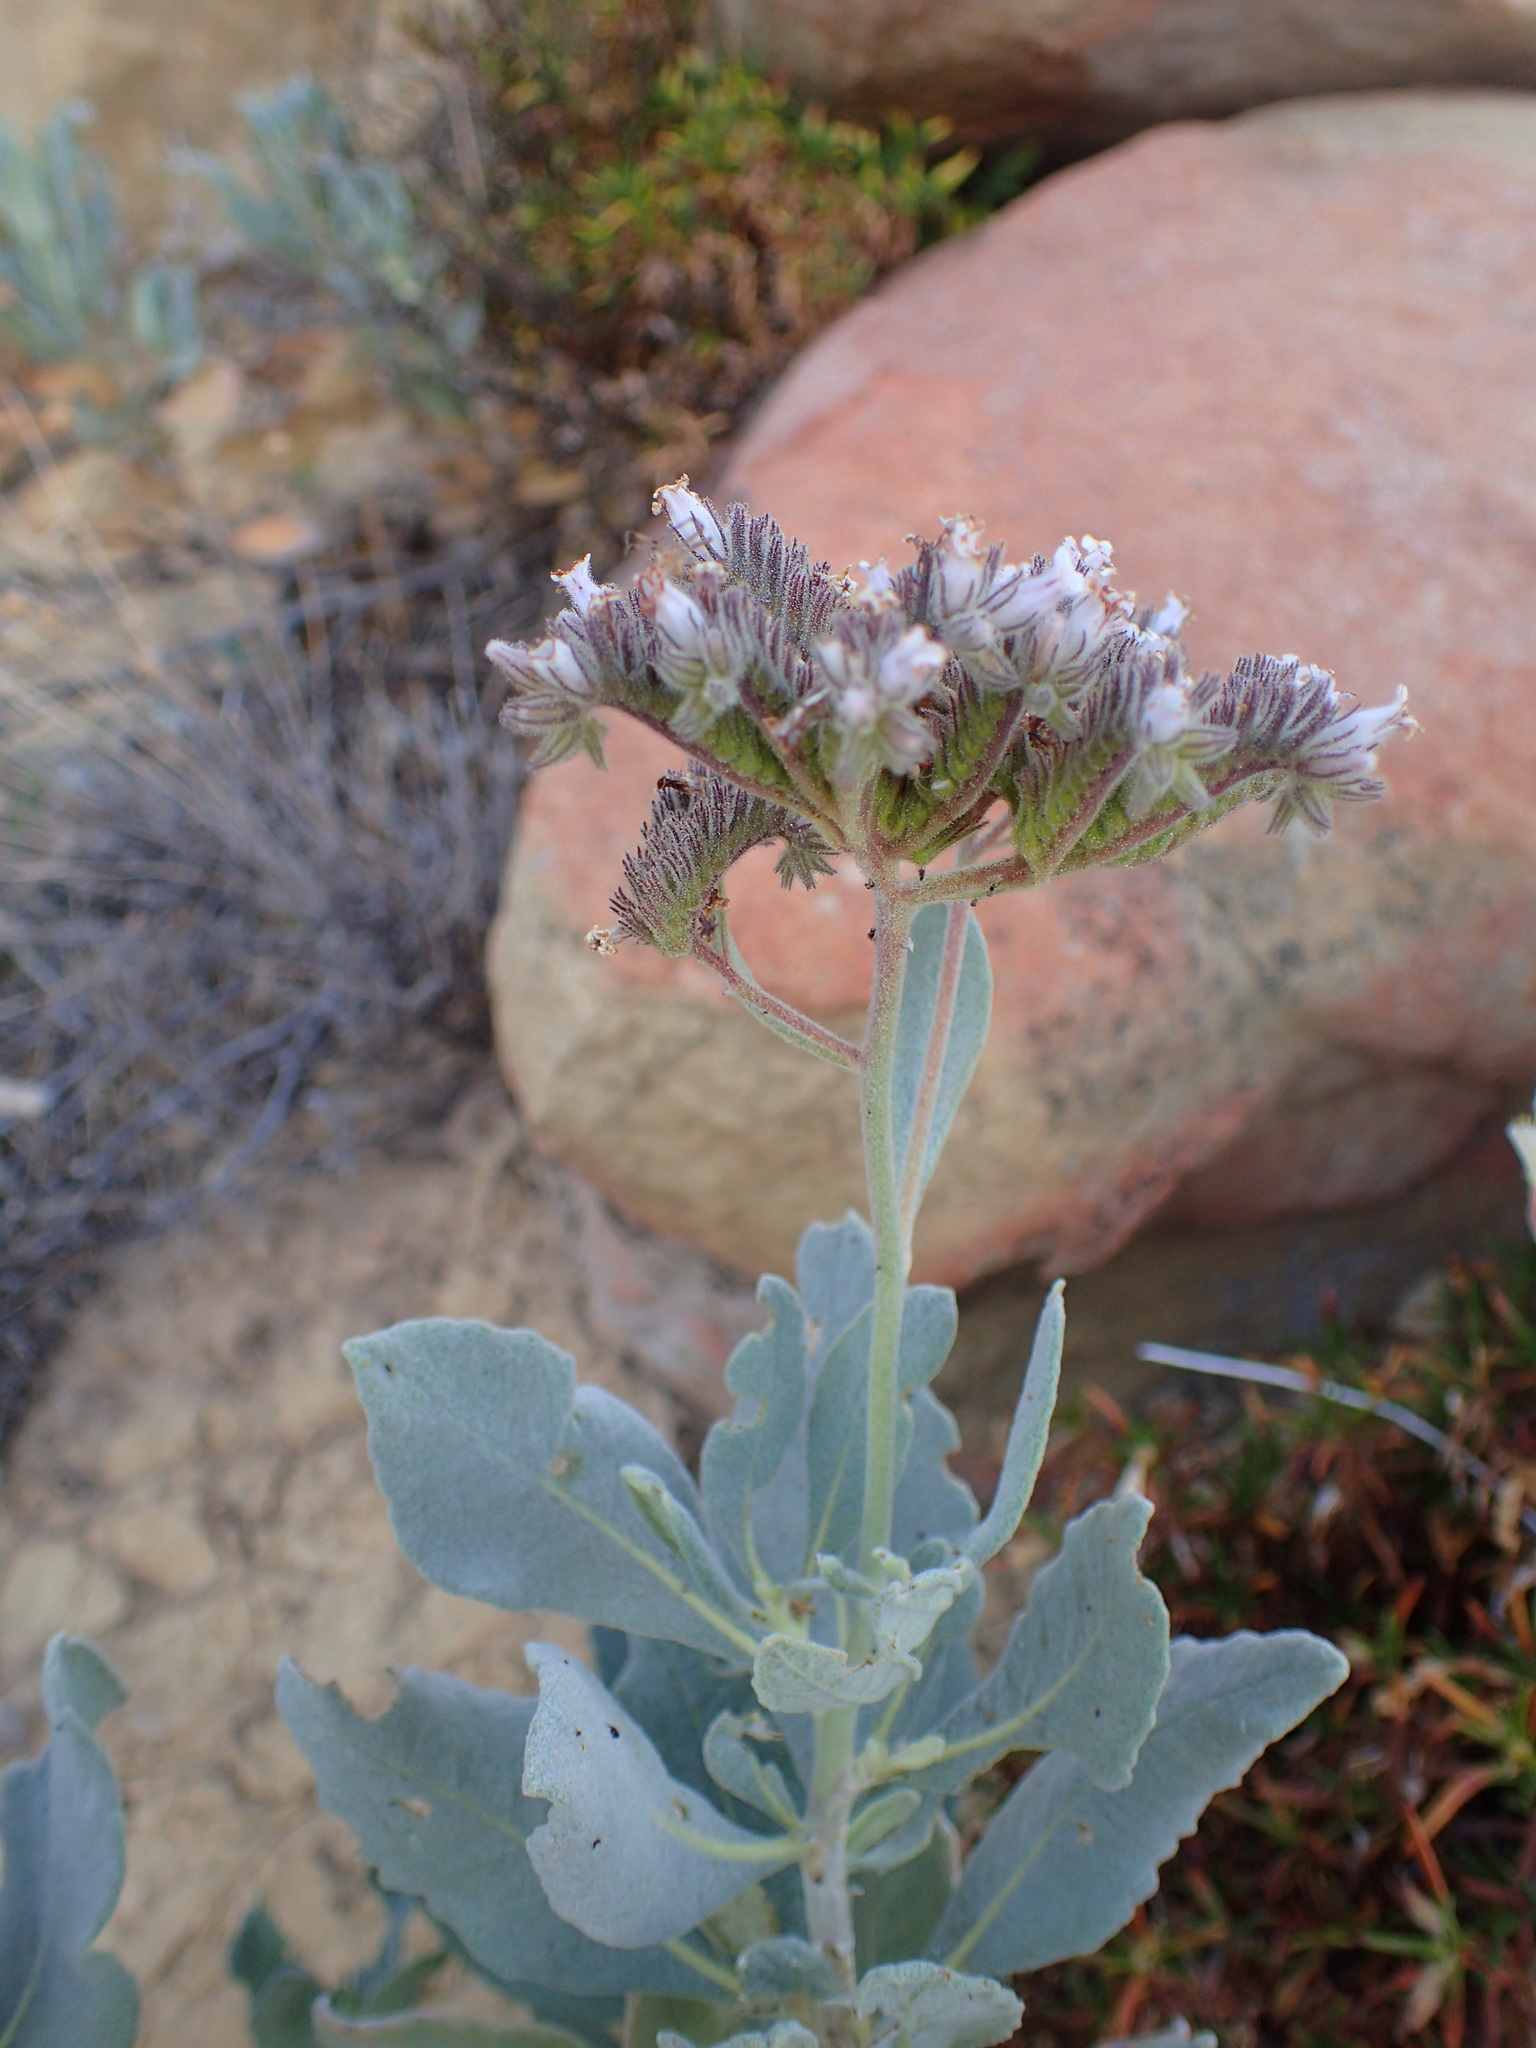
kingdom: Plantae
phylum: Tracheophyta
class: Magnoliopsida
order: Boraginales
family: Namaceae
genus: Eriodictyon
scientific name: Eriodictyon traskiae
